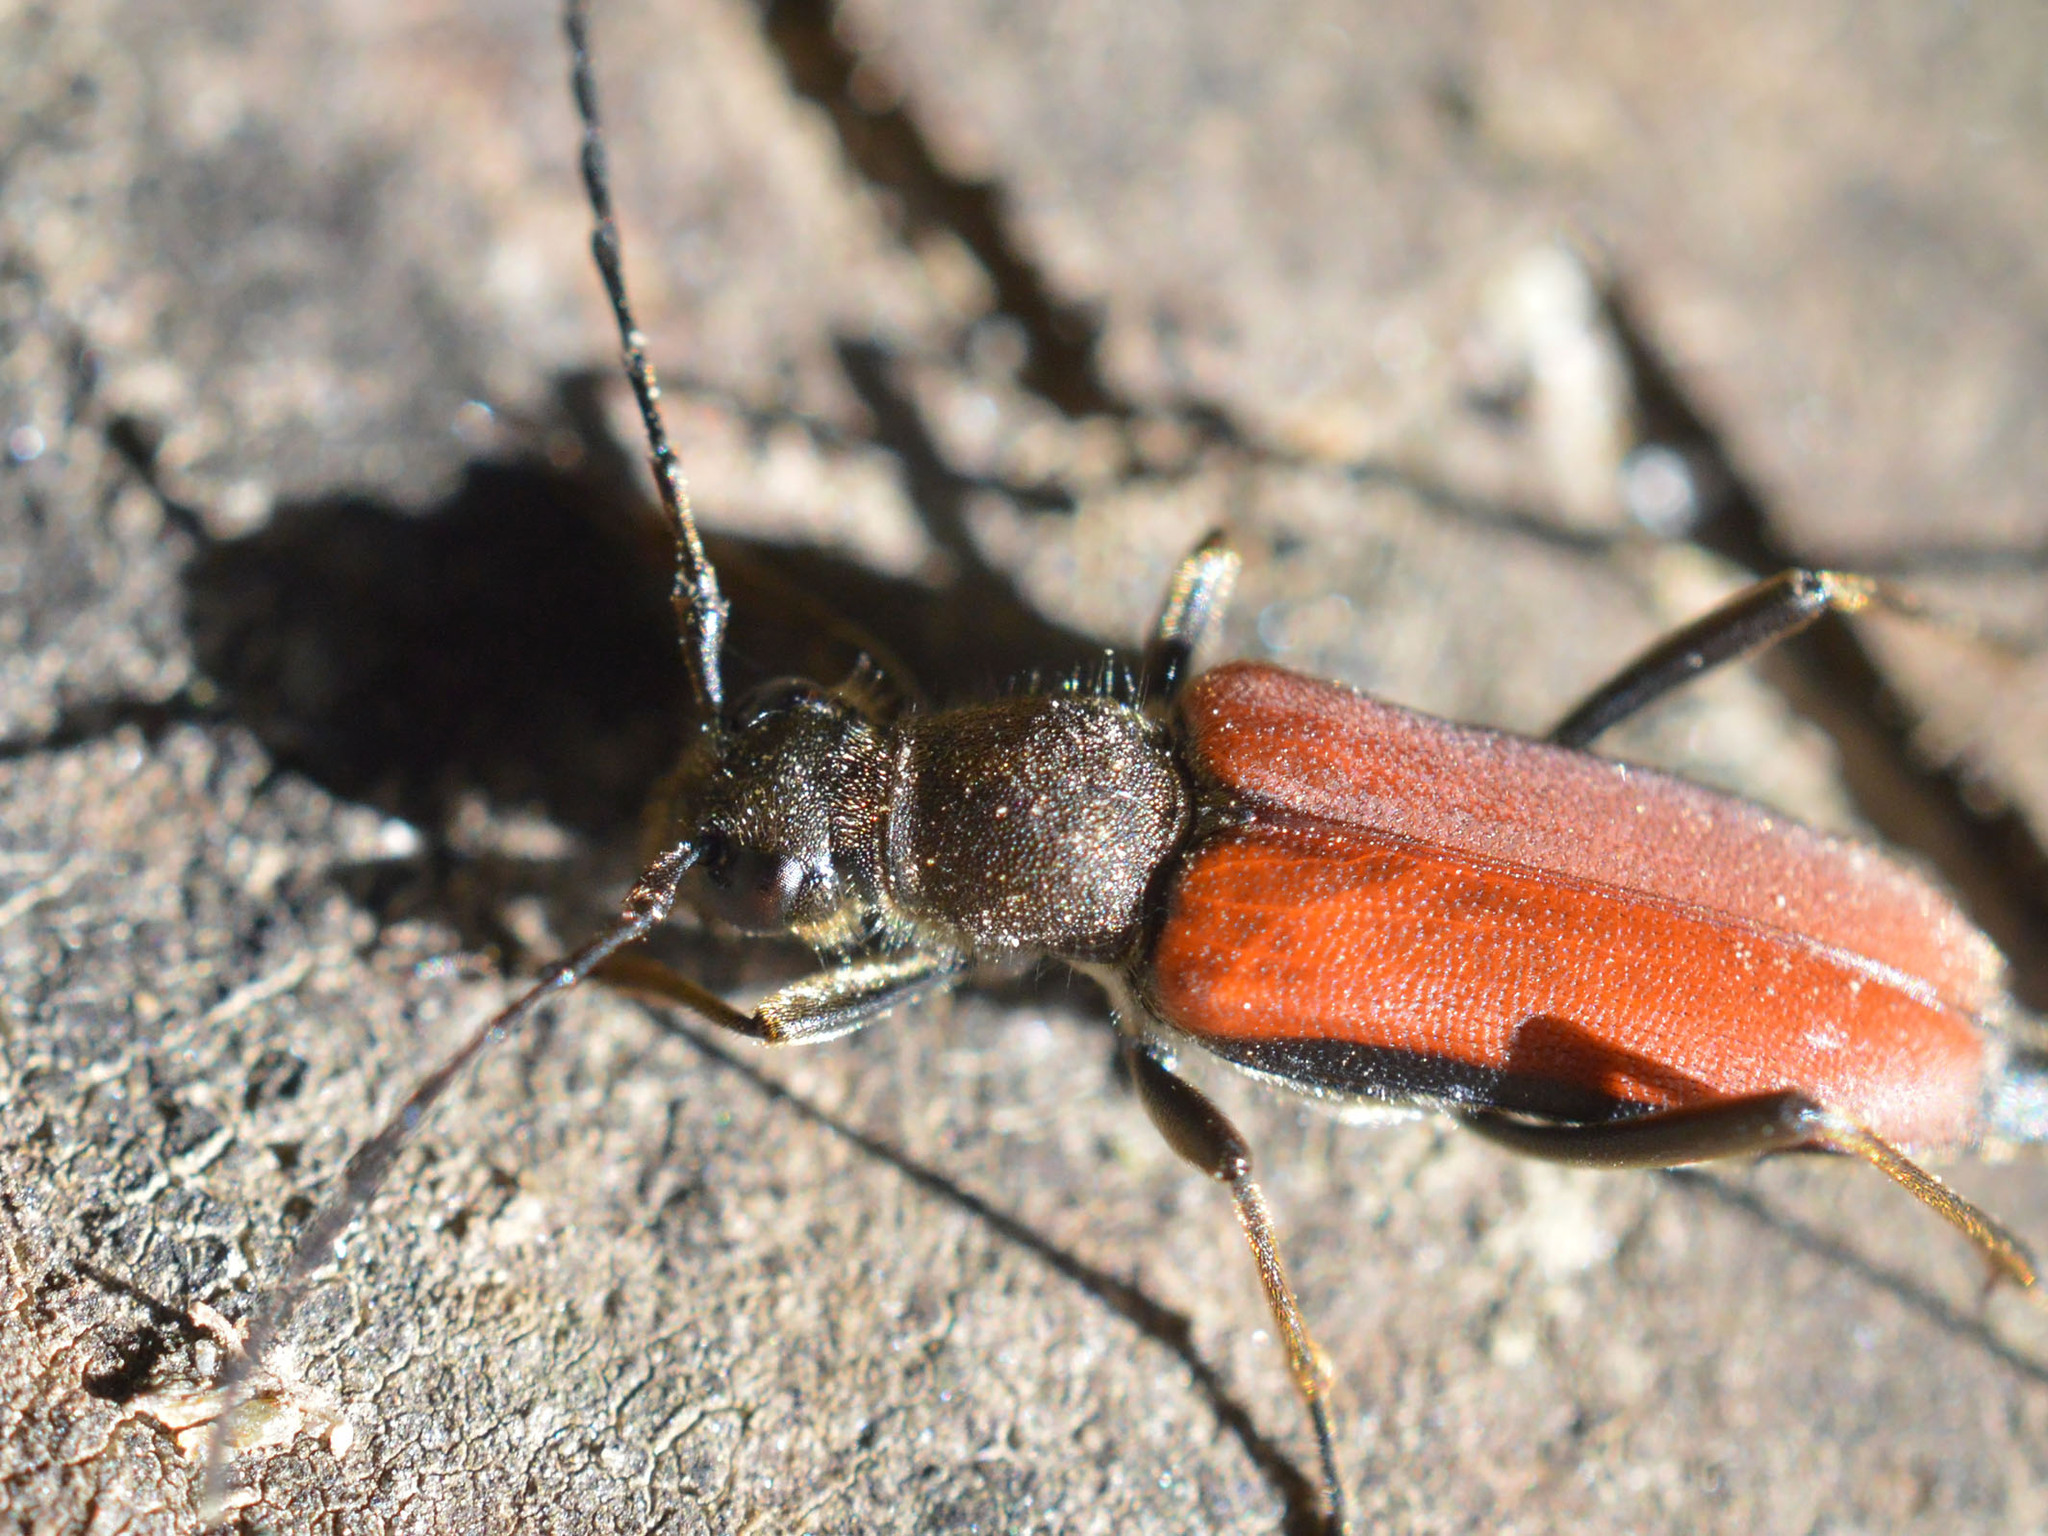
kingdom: Animalia
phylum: Arthropoda
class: Insecta
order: Coleoptera
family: Cerambycidae
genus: Anastrangalia
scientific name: Anastrangalia dubia
